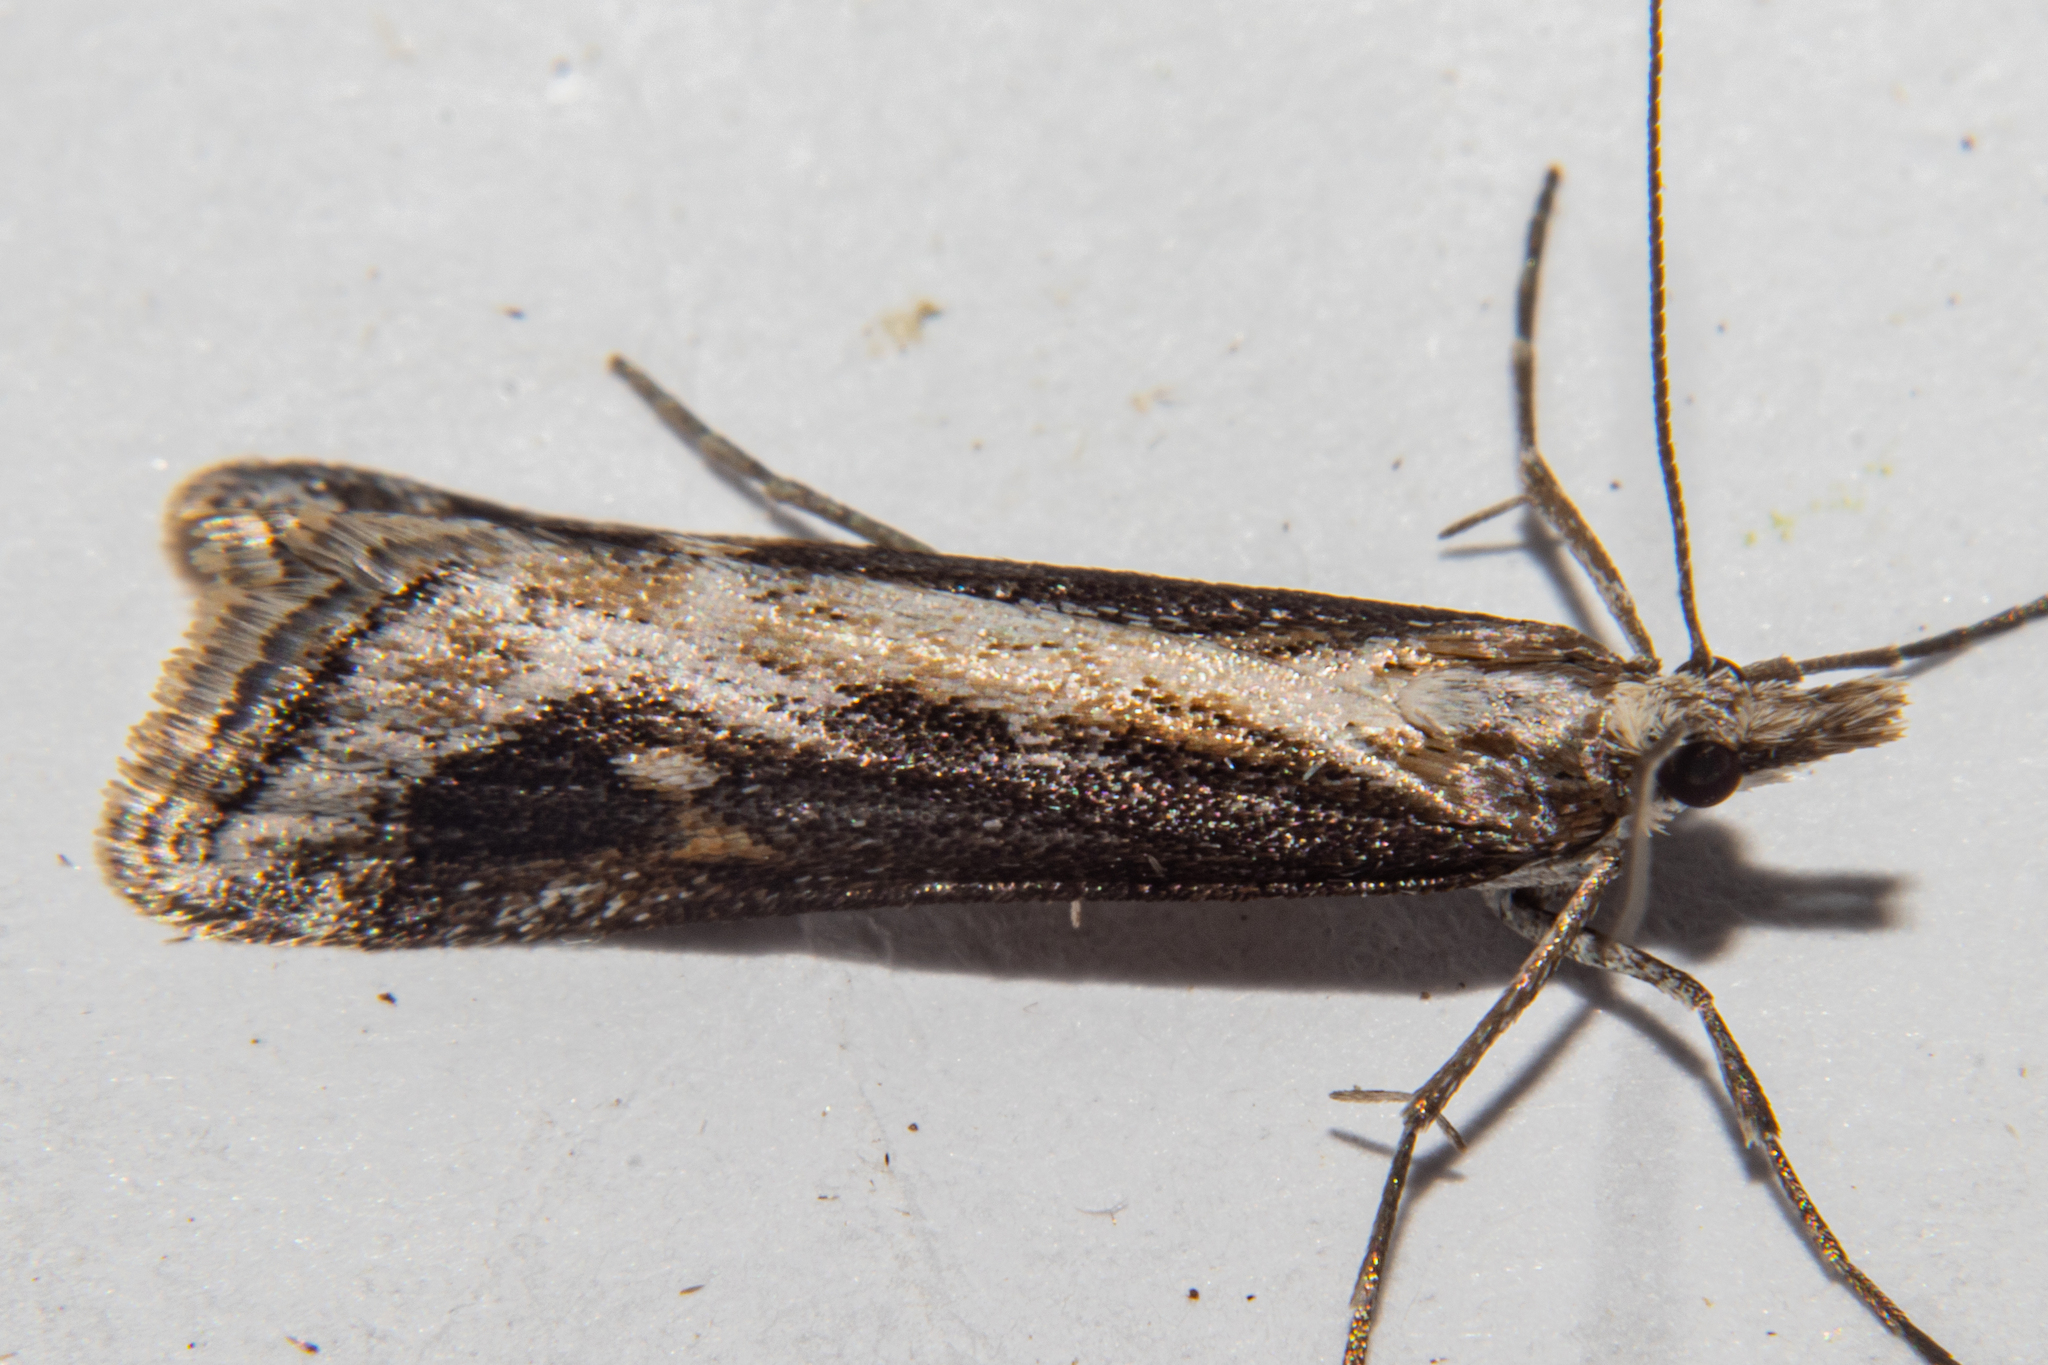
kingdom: Animalia
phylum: Arthropoda
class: Insecta
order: Lepidoptera
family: Crambidae
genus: Scoparia
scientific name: Scoparia exilis
